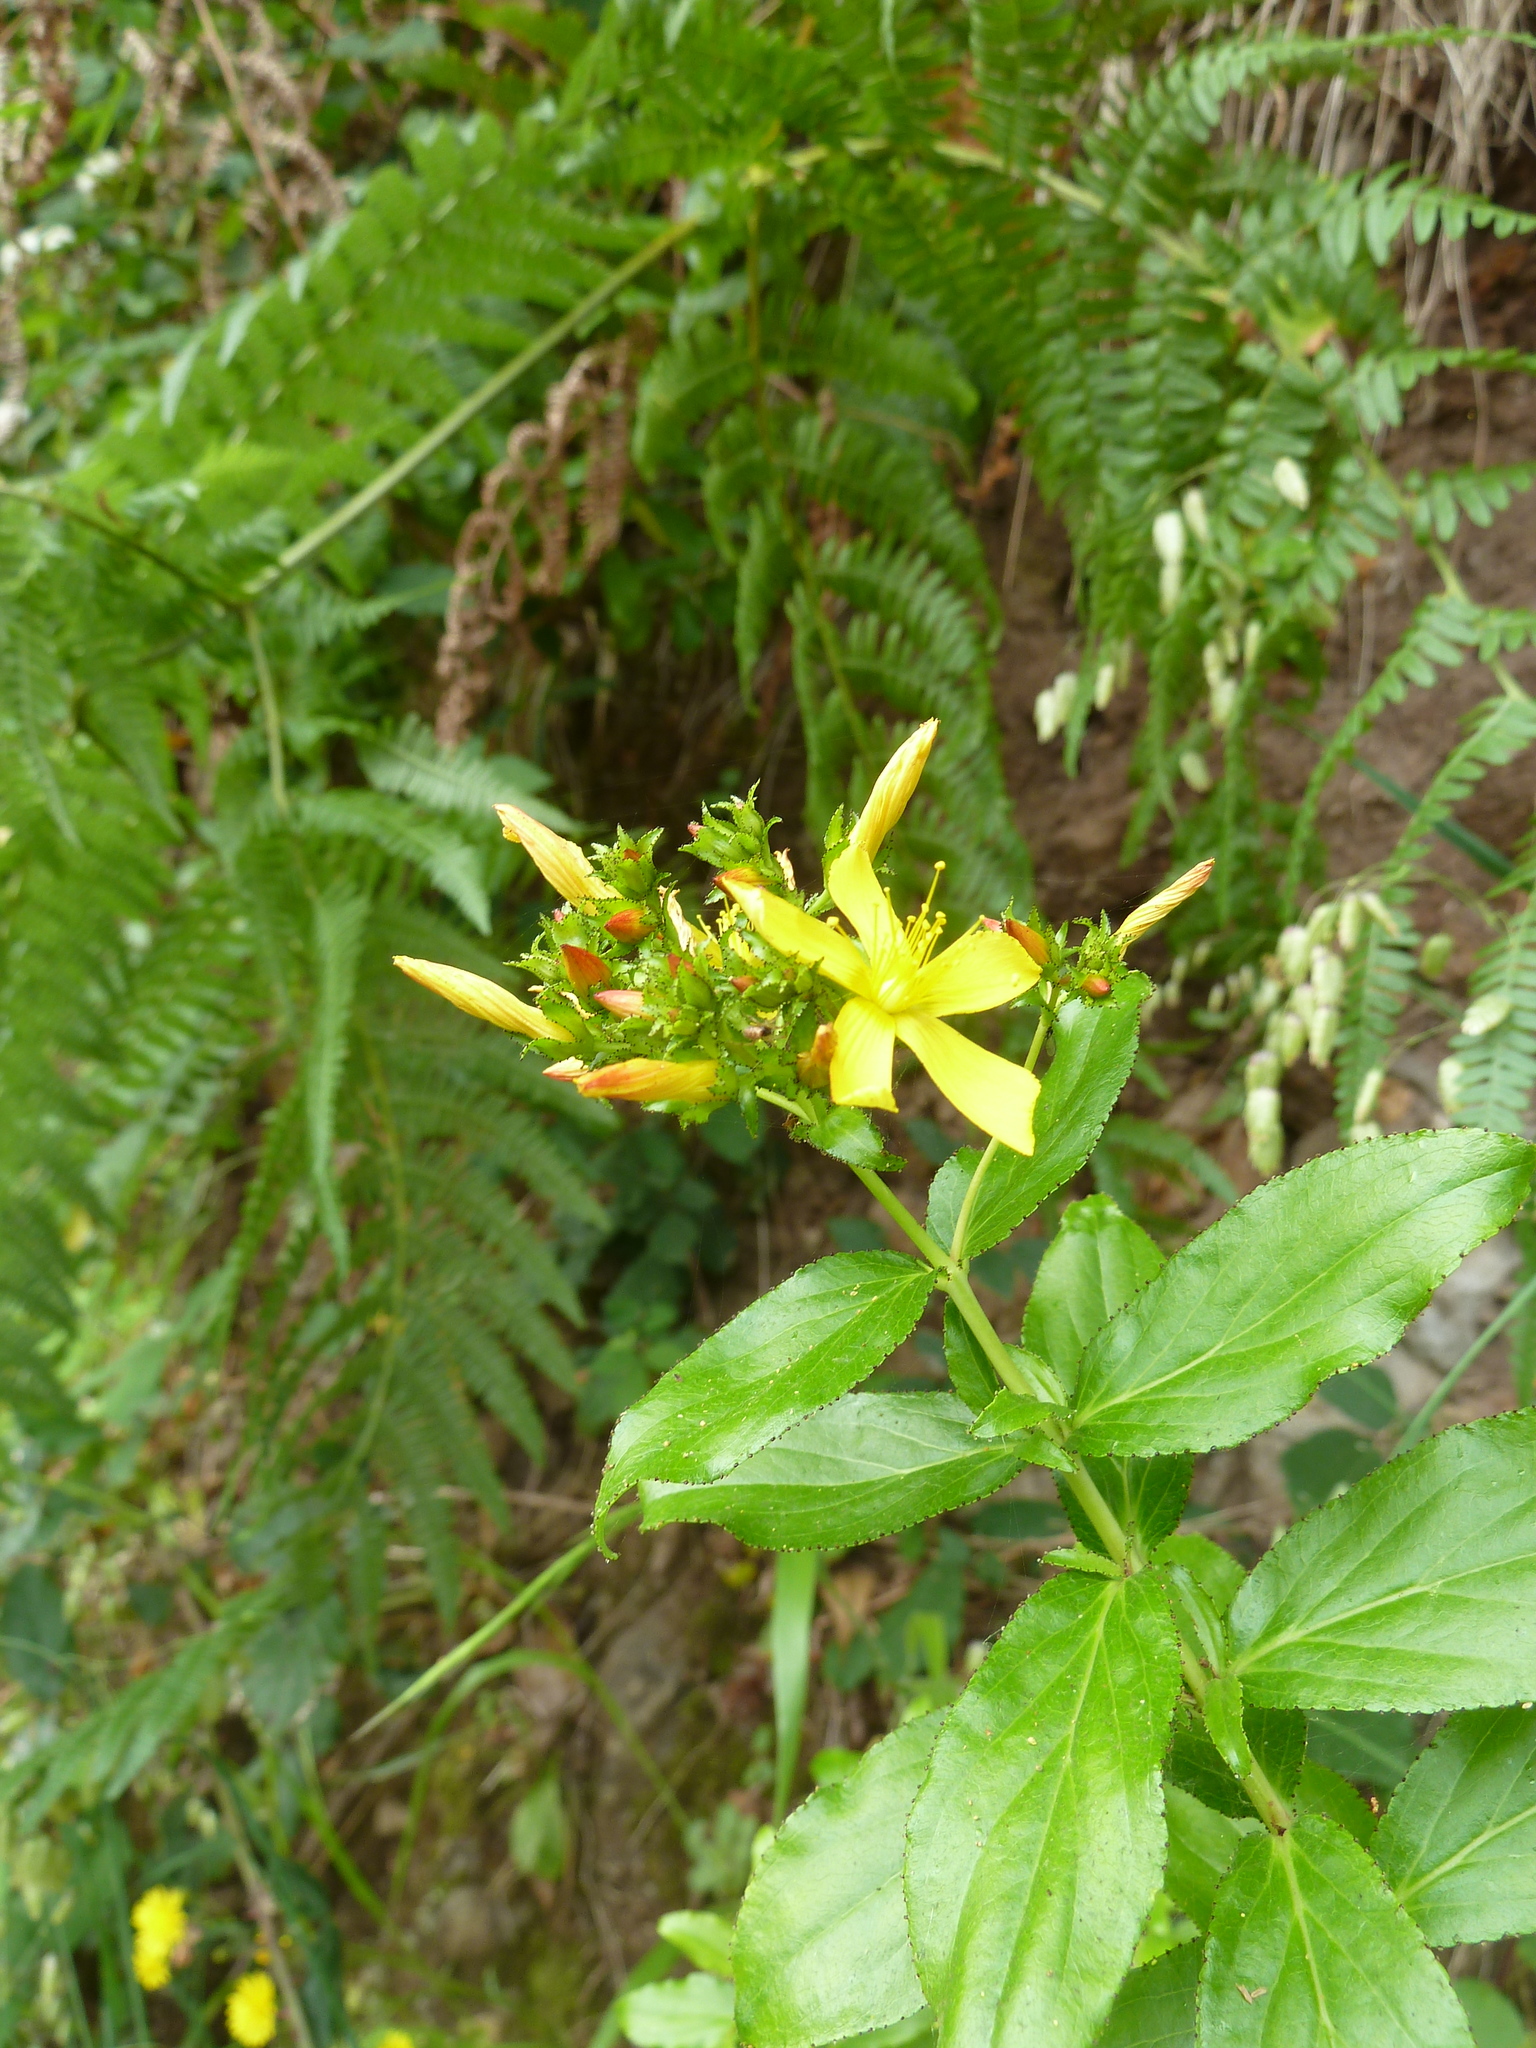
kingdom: Plantae
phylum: Tracheophyta
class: Magnoliopsida
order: Malpighiales
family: Hypericaceae
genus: Hypericum
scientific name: Hypericum glandulosum
